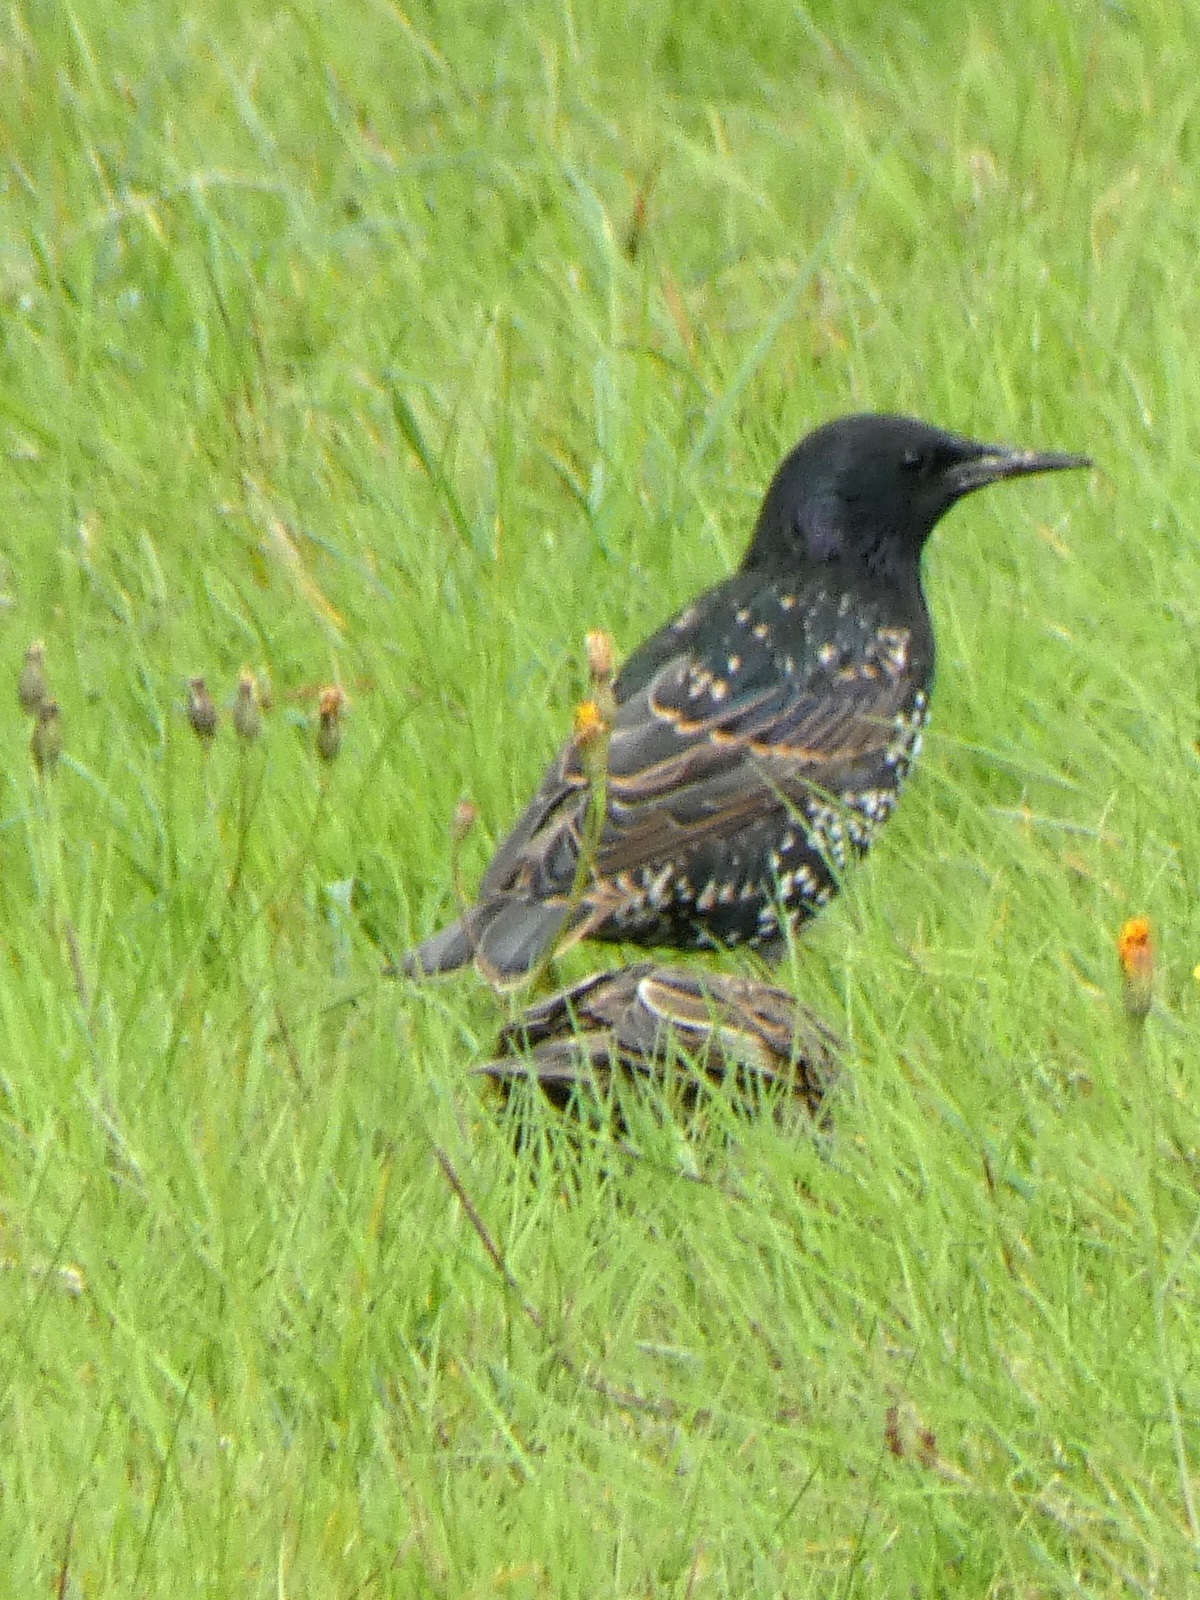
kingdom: Animalia
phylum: Chordata
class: Aves
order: Passeriformes
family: Sturnidae
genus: Sturnus
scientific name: Sturnus vulgaris
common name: Common starling
